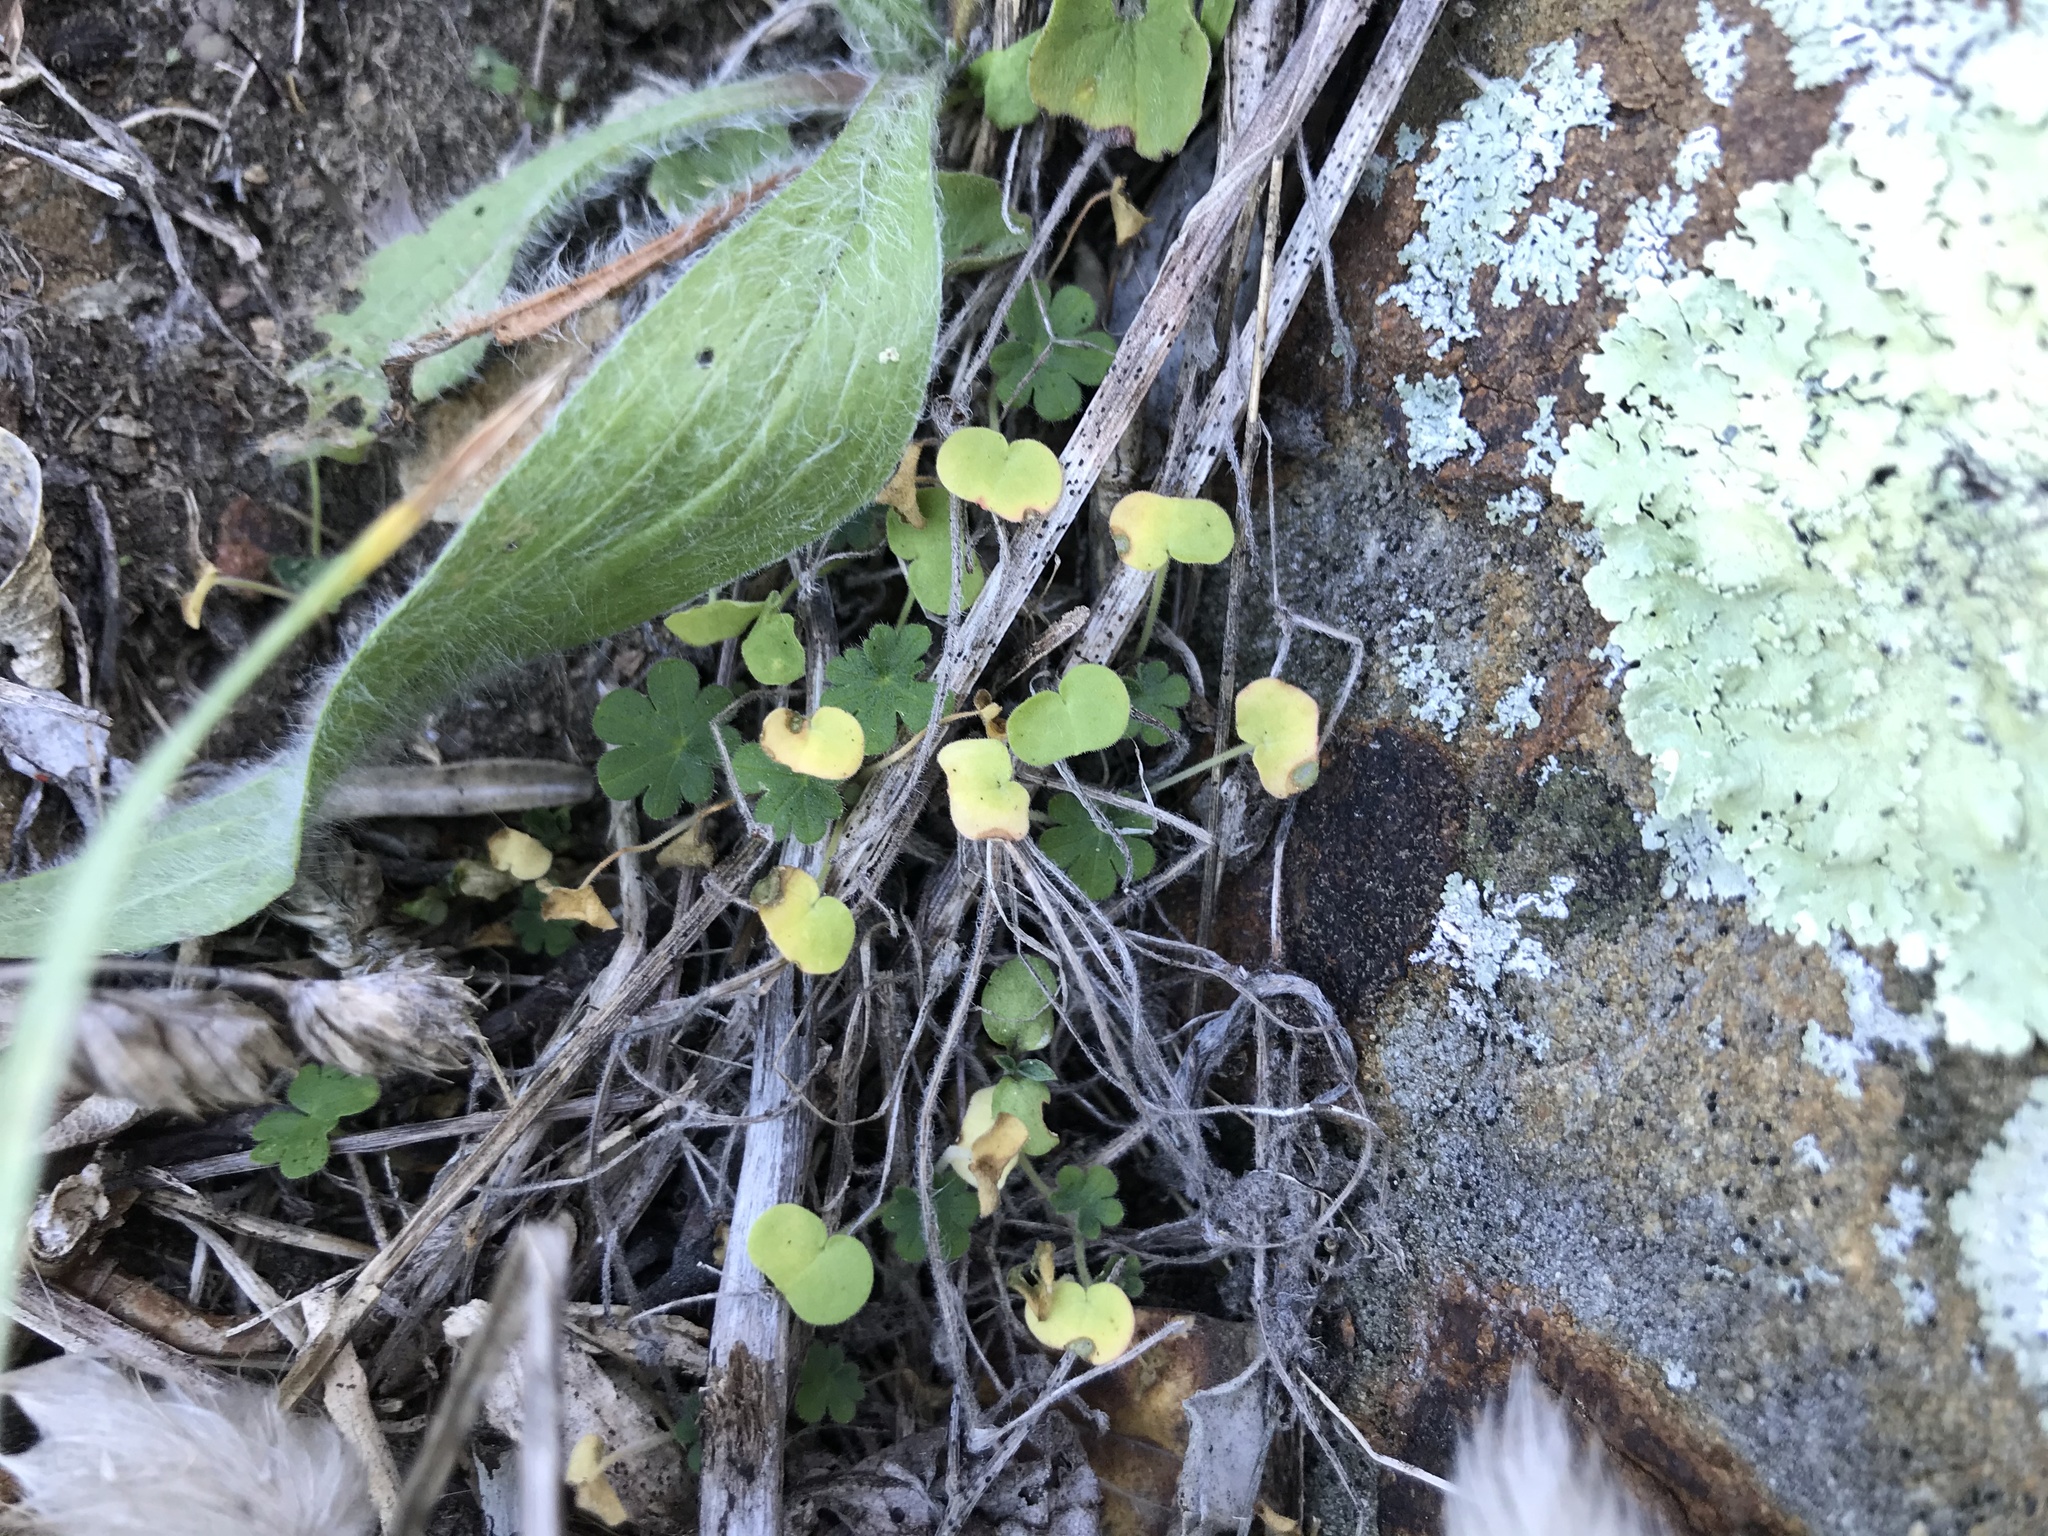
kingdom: Plantae
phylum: Tracheophyta
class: Magnoliopsida
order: Apiales
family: Apiaceae
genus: Centella
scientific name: Centella uniflora
